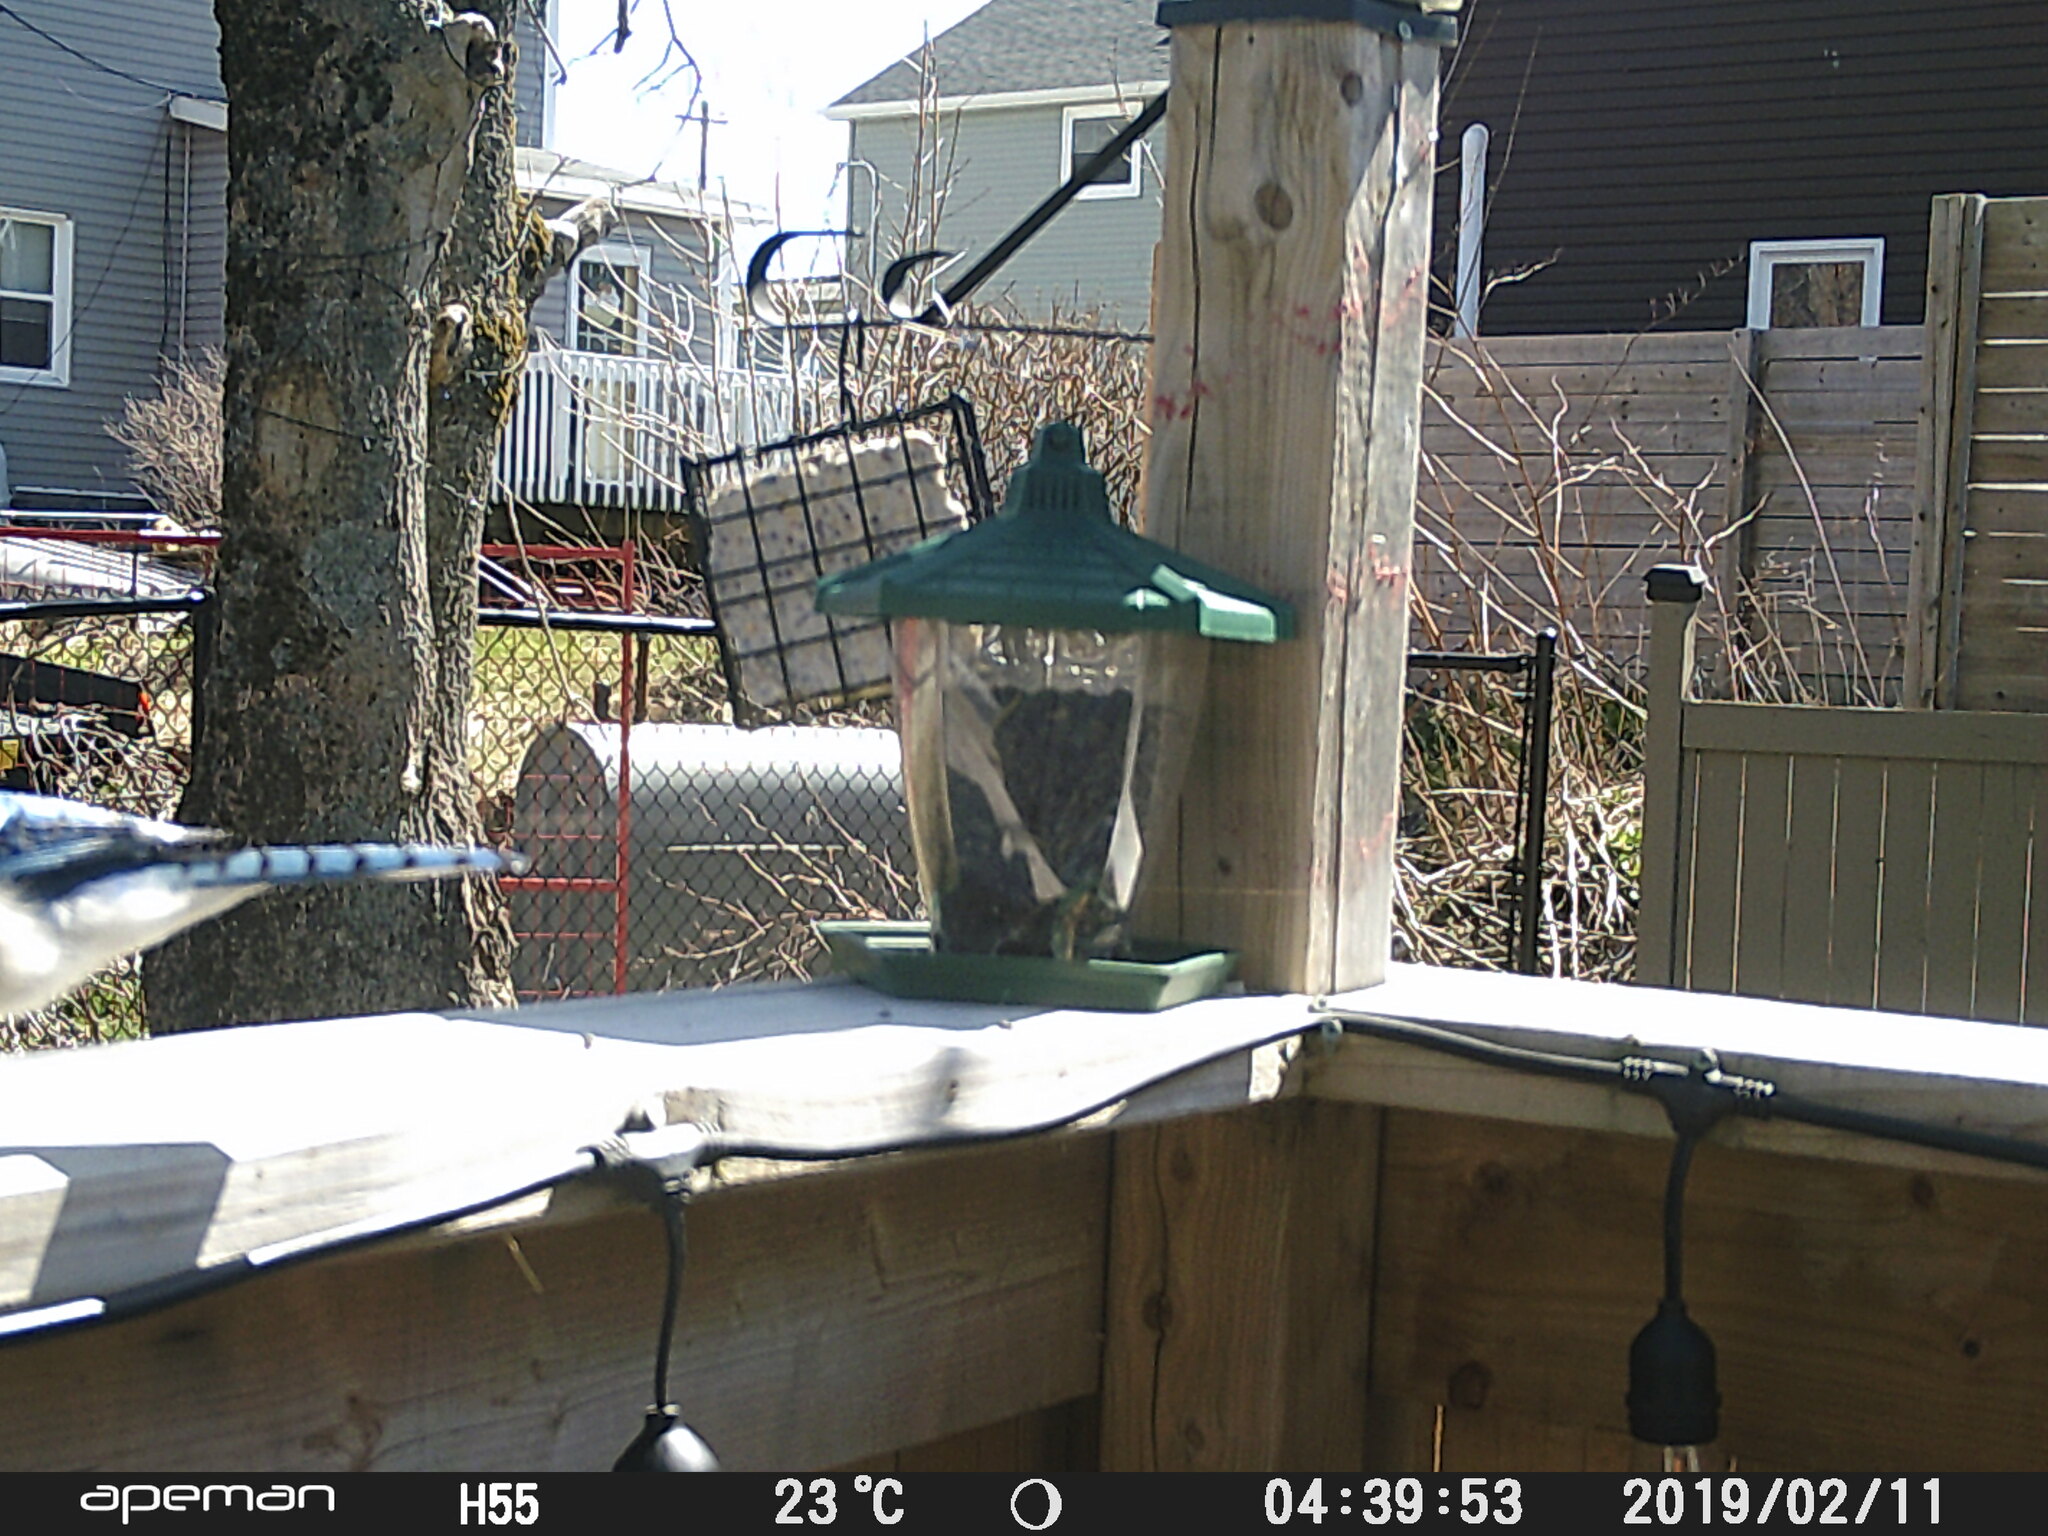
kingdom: Animalia
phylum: Chordata
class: Aves
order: Passeriformes
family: Corvidae
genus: Cyanocitta
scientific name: Cyanocitta cristata
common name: Blue jay
